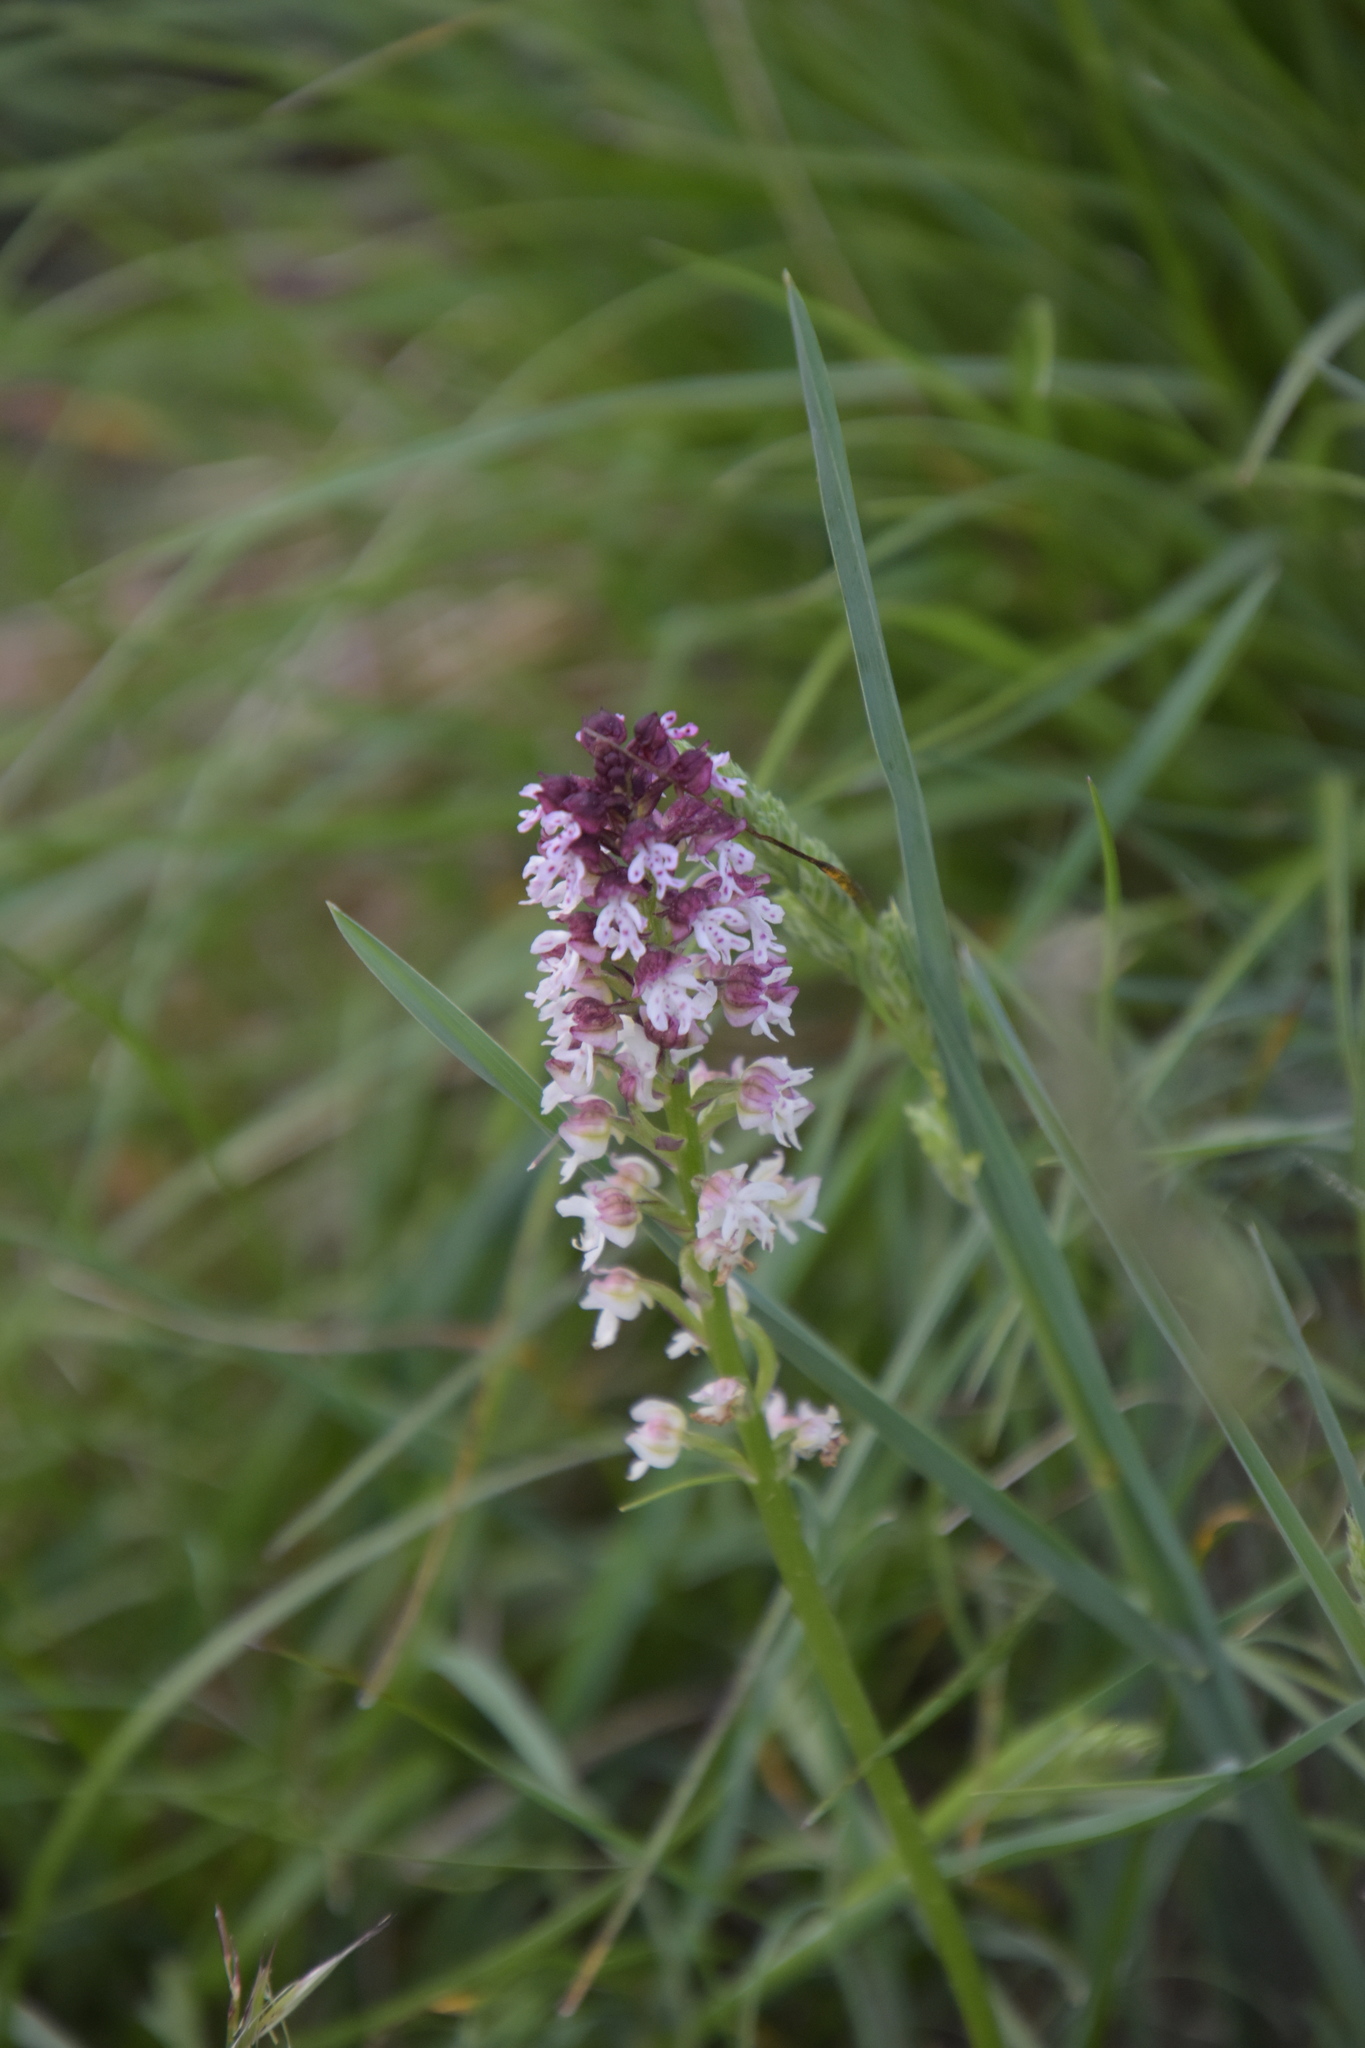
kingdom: Plantae
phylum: Tracheophyta
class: Liliopsida
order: Asparagales
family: Orchidaceae
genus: Neotinea
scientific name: Neotinea ustulata
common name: Burnt orchid
